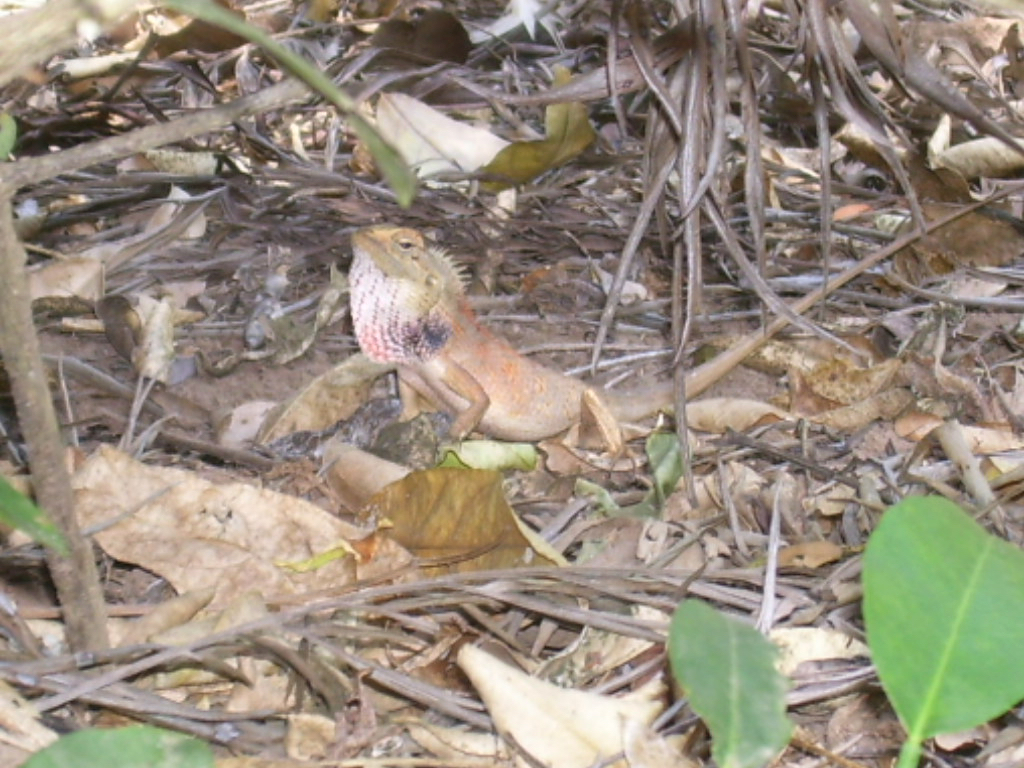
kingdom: Animalia
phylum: Chordata
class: Squamata
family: Agamidae
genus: Calotes
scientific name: Calotes versicolor
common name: Oriental garden lizard
